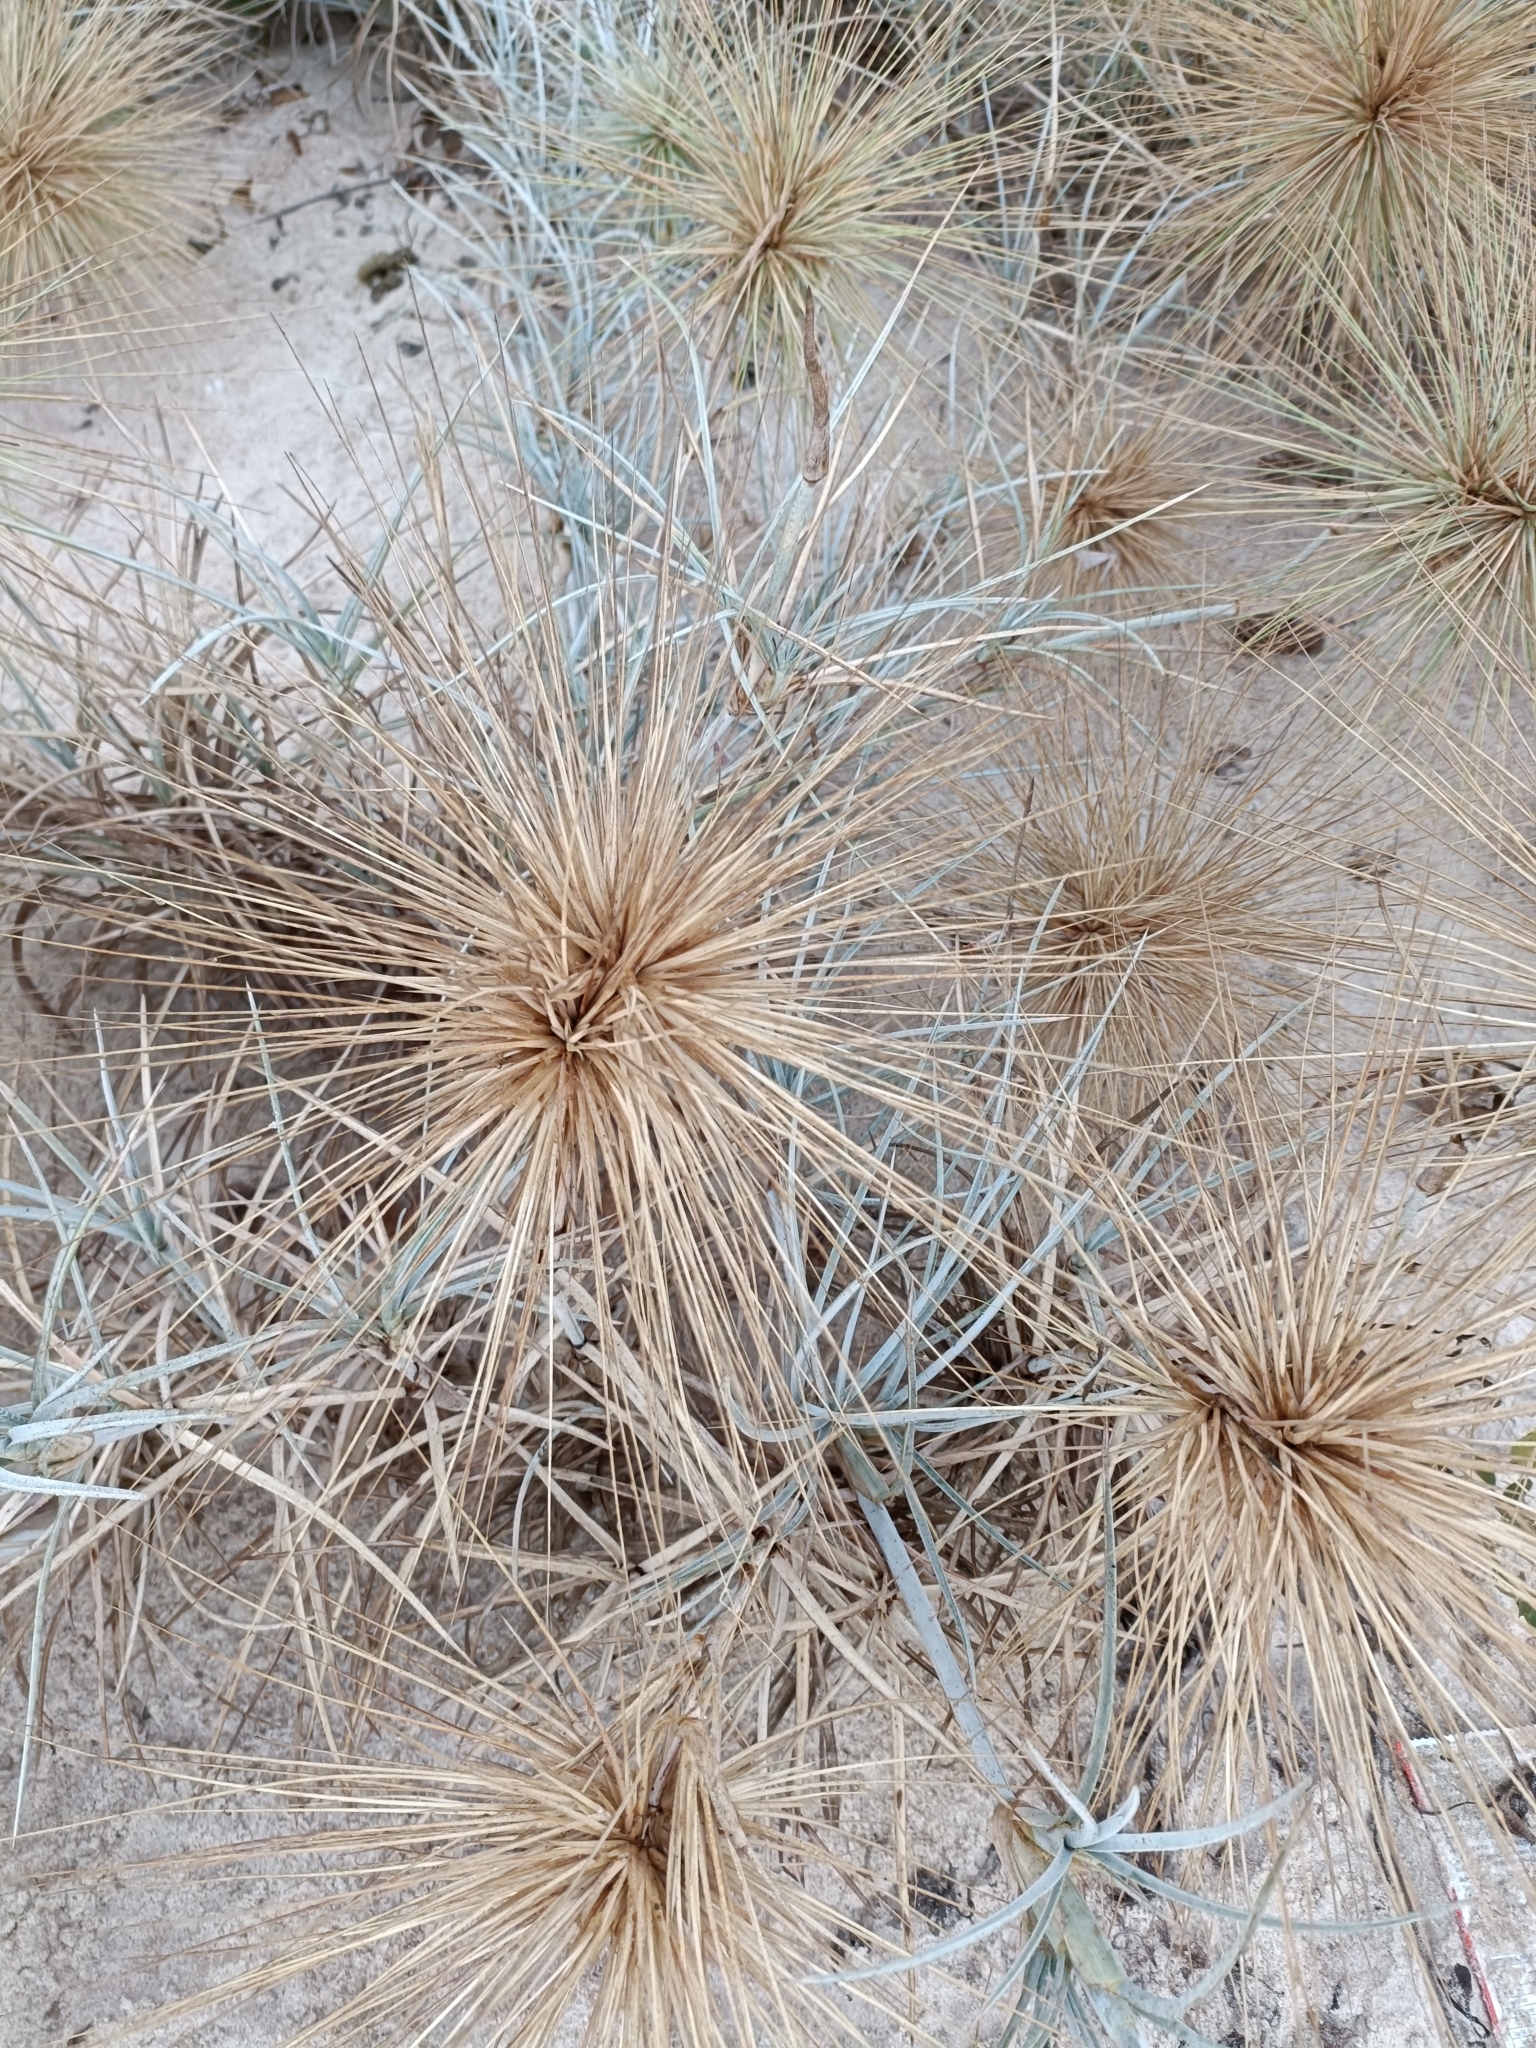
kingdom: Plantae
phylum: Tracheophyta
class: Liliopsida
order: Poales
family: Poaceae
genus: Spinifex
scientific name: Spinifex littoreus
